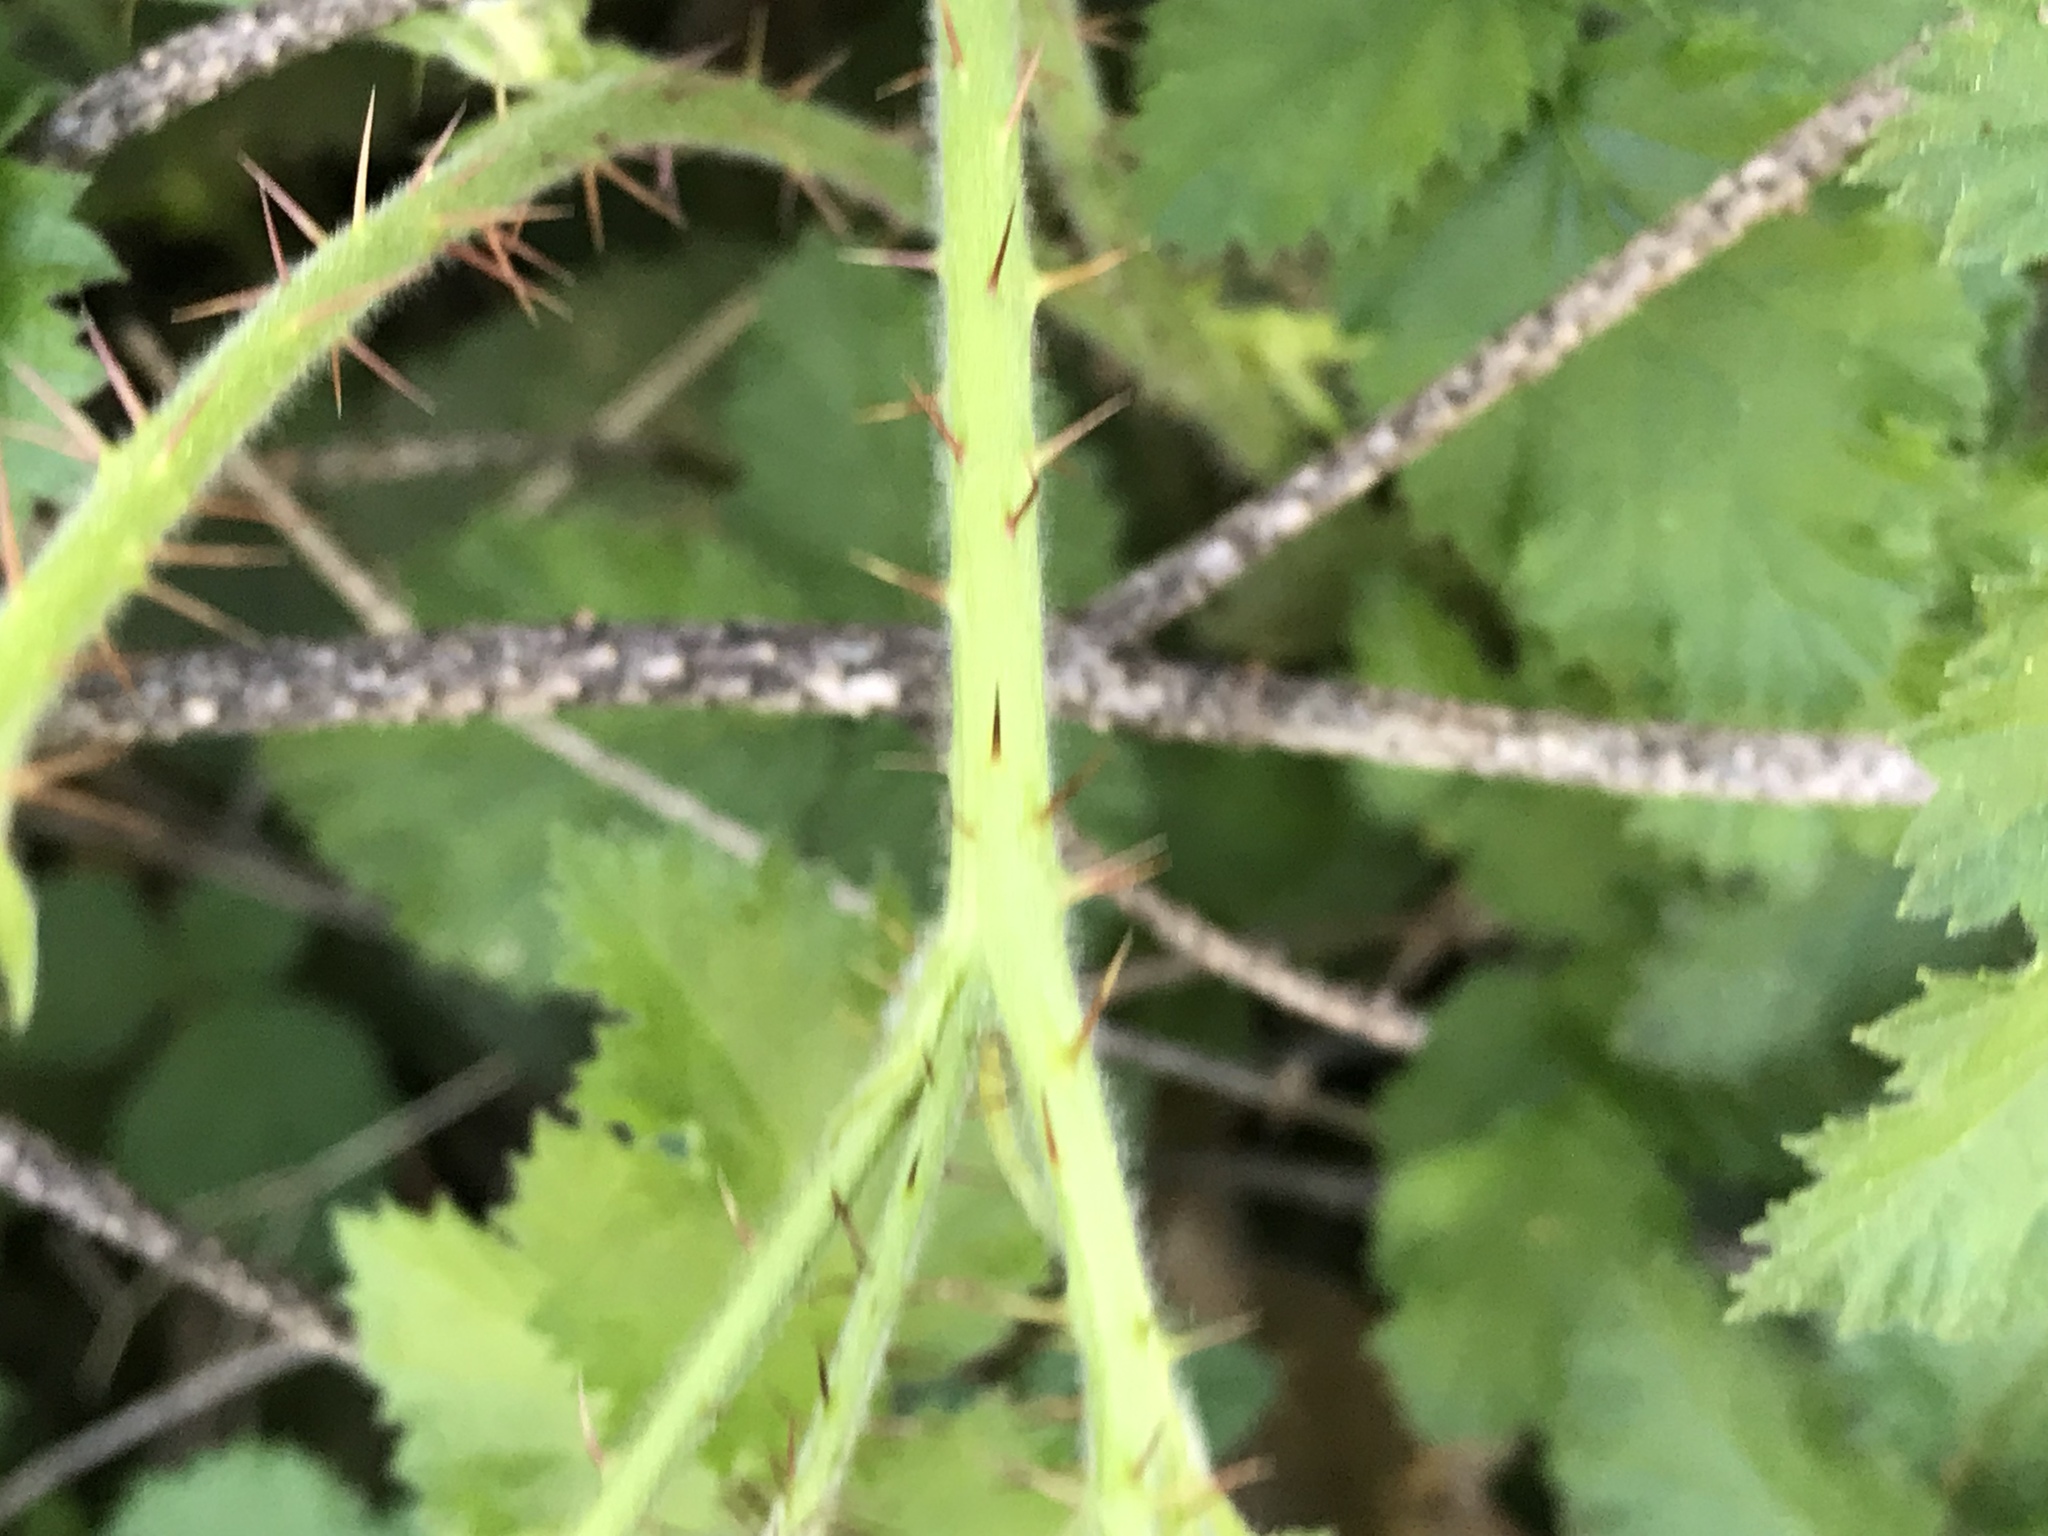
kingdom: Plantae
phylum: Tracheophyta
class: Magnoliopsida
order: Rosales
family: Rosaceae
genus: Rubus
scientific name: Rubus ursinus
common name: Pacific blackberry
